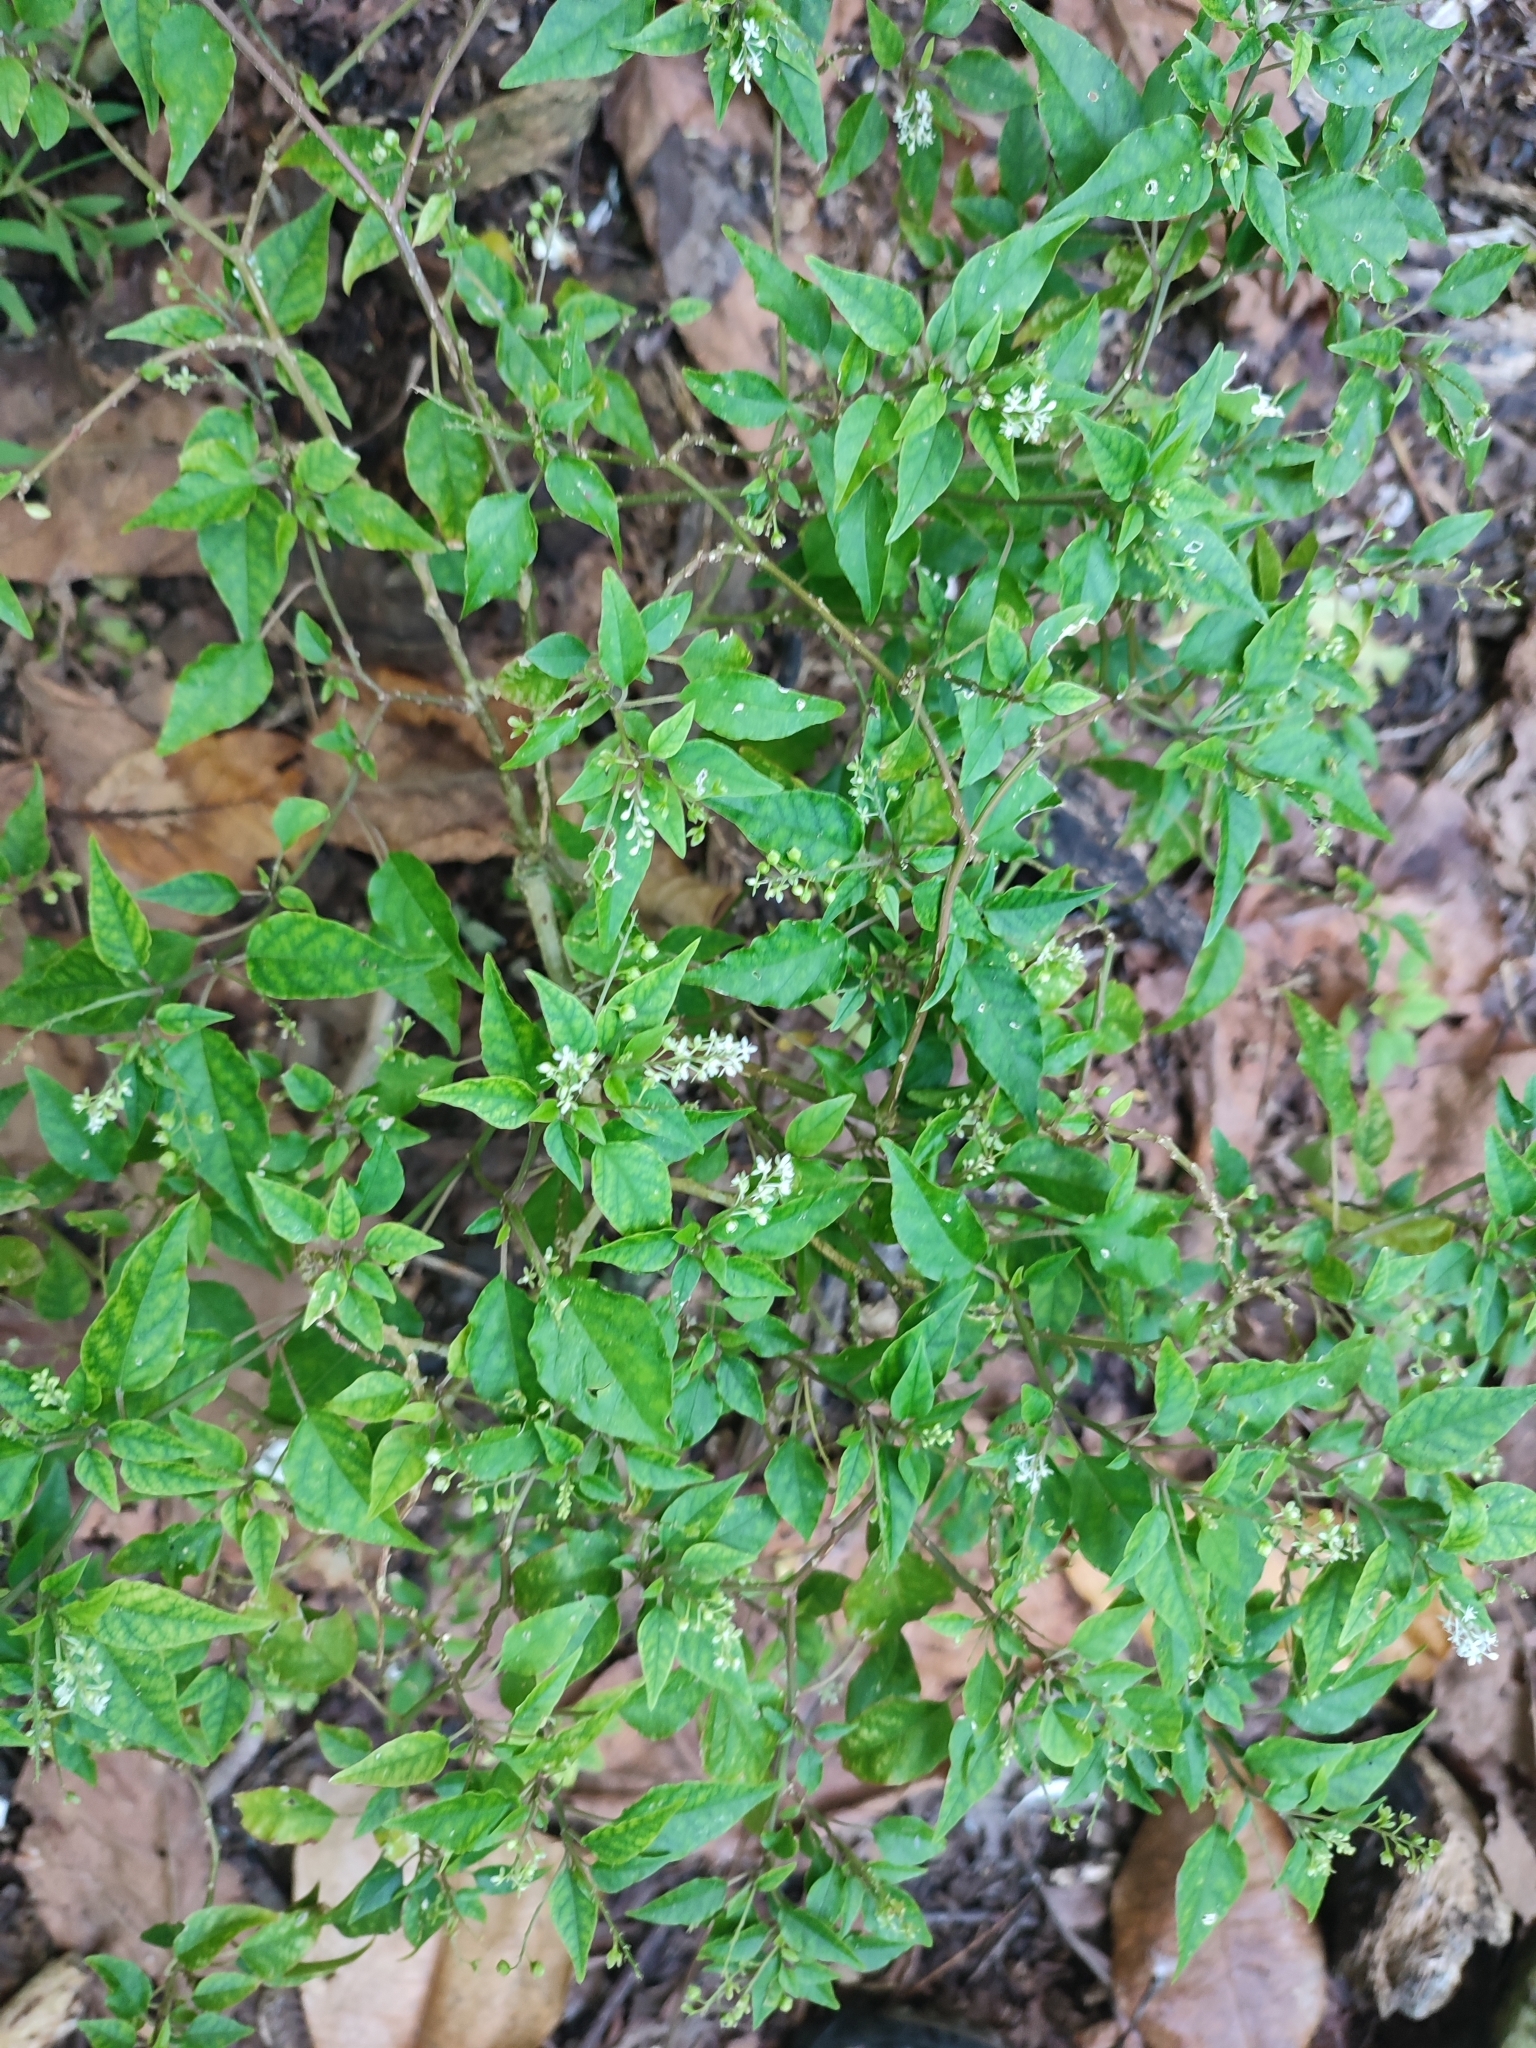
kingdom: Plantae
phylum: Tracheophyta
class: Magnoliopsida
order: Caryophyllales
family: Phytolaccaceae
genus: Rivina
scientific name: Rivina humilis
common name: Rougeplant
